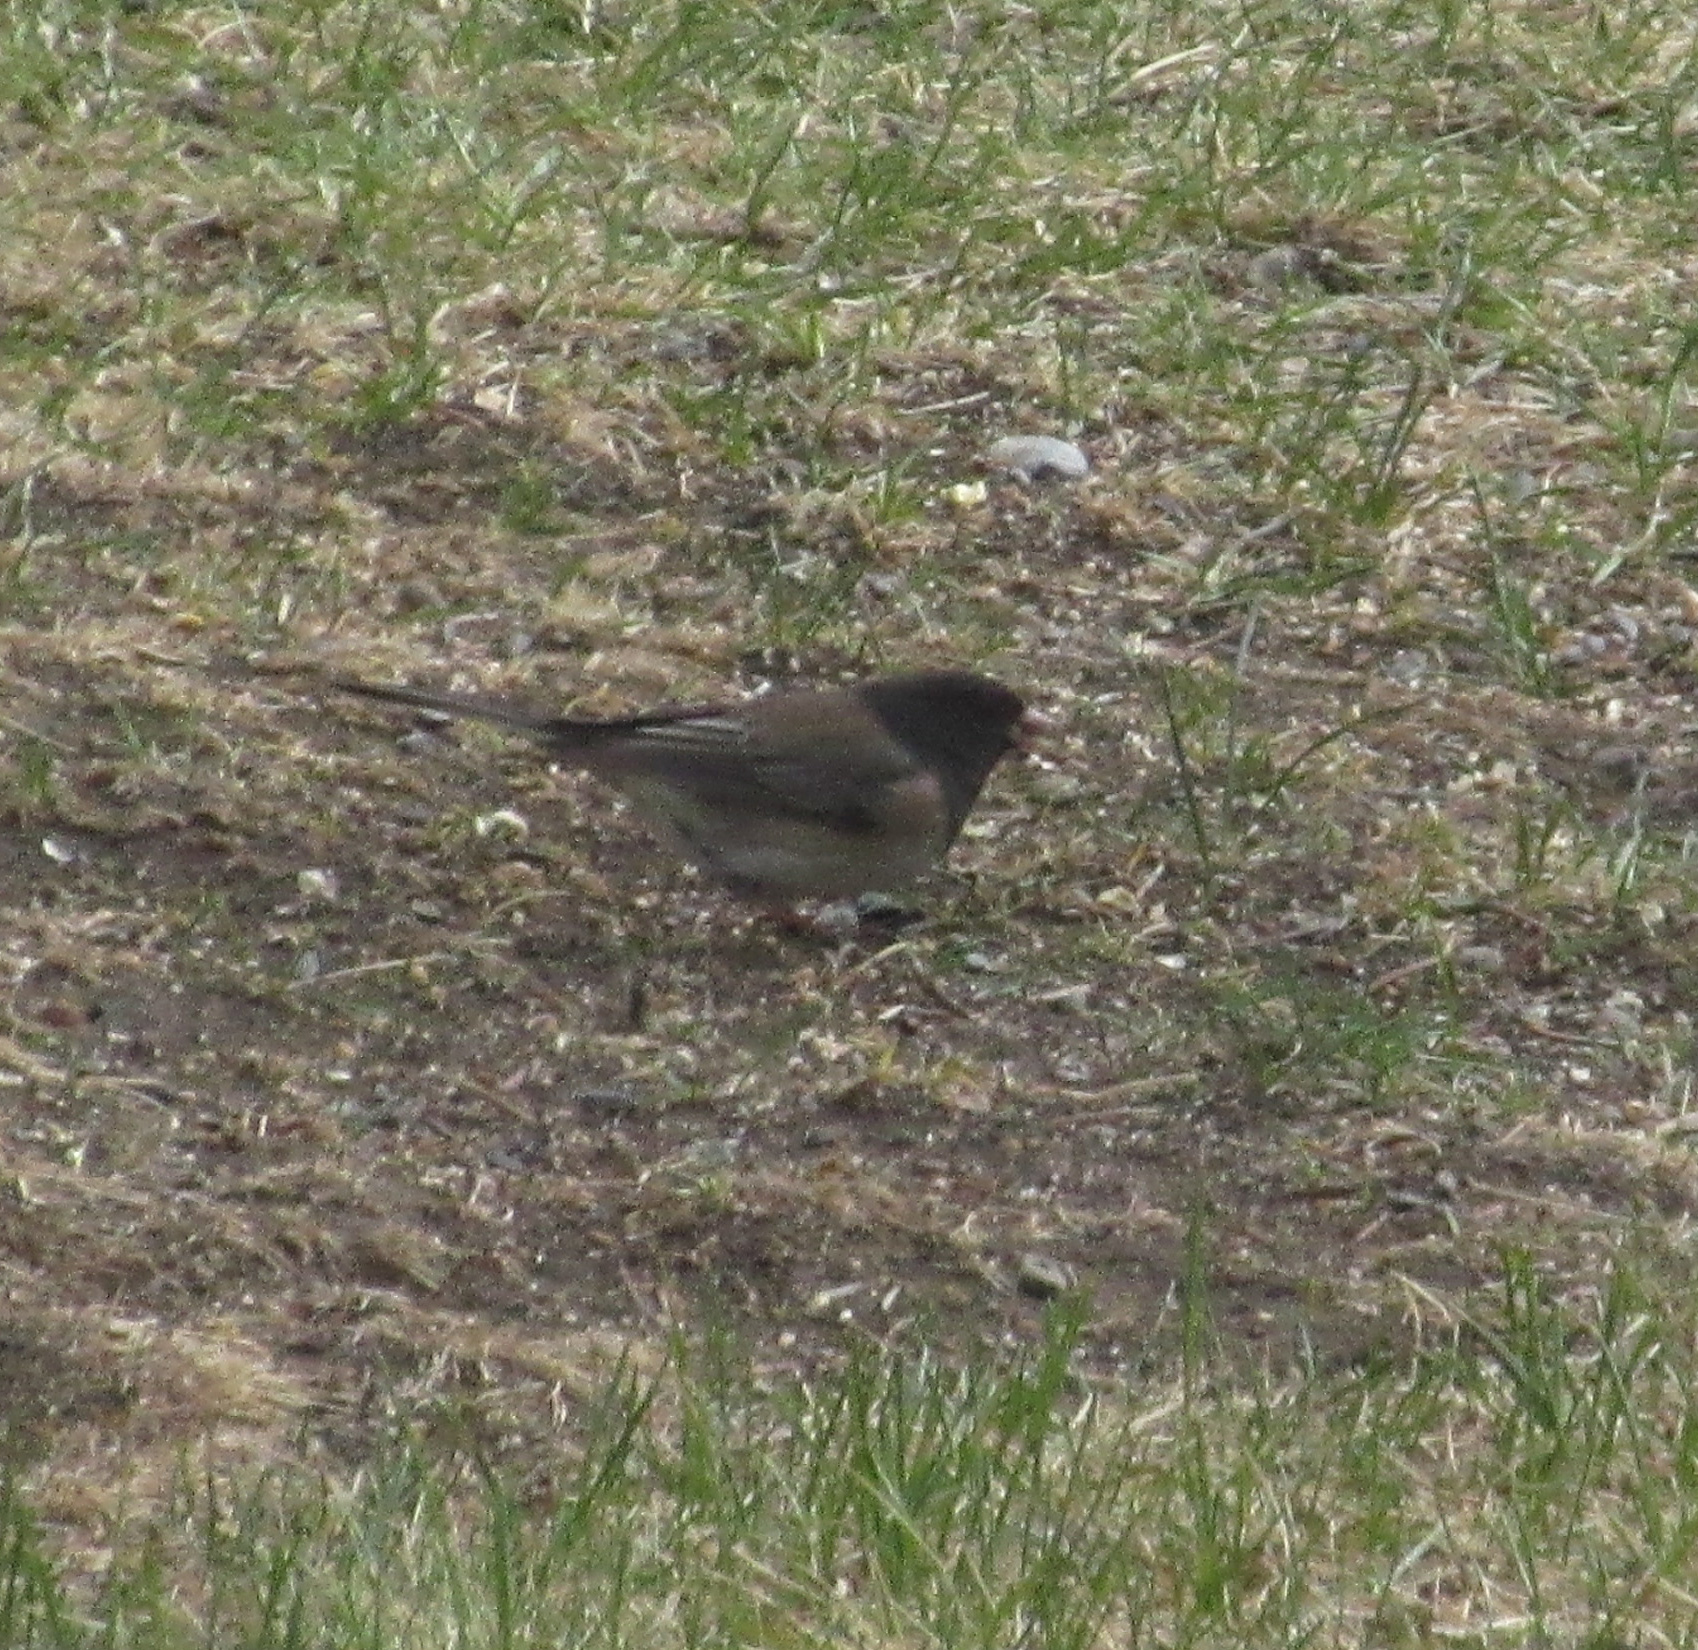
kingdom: Animalia
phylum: Chordata
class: Aves
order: Passeriformes
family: Passerellidae
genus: Junco
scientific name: Junco hyemalis
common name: Dark-eyed junco
